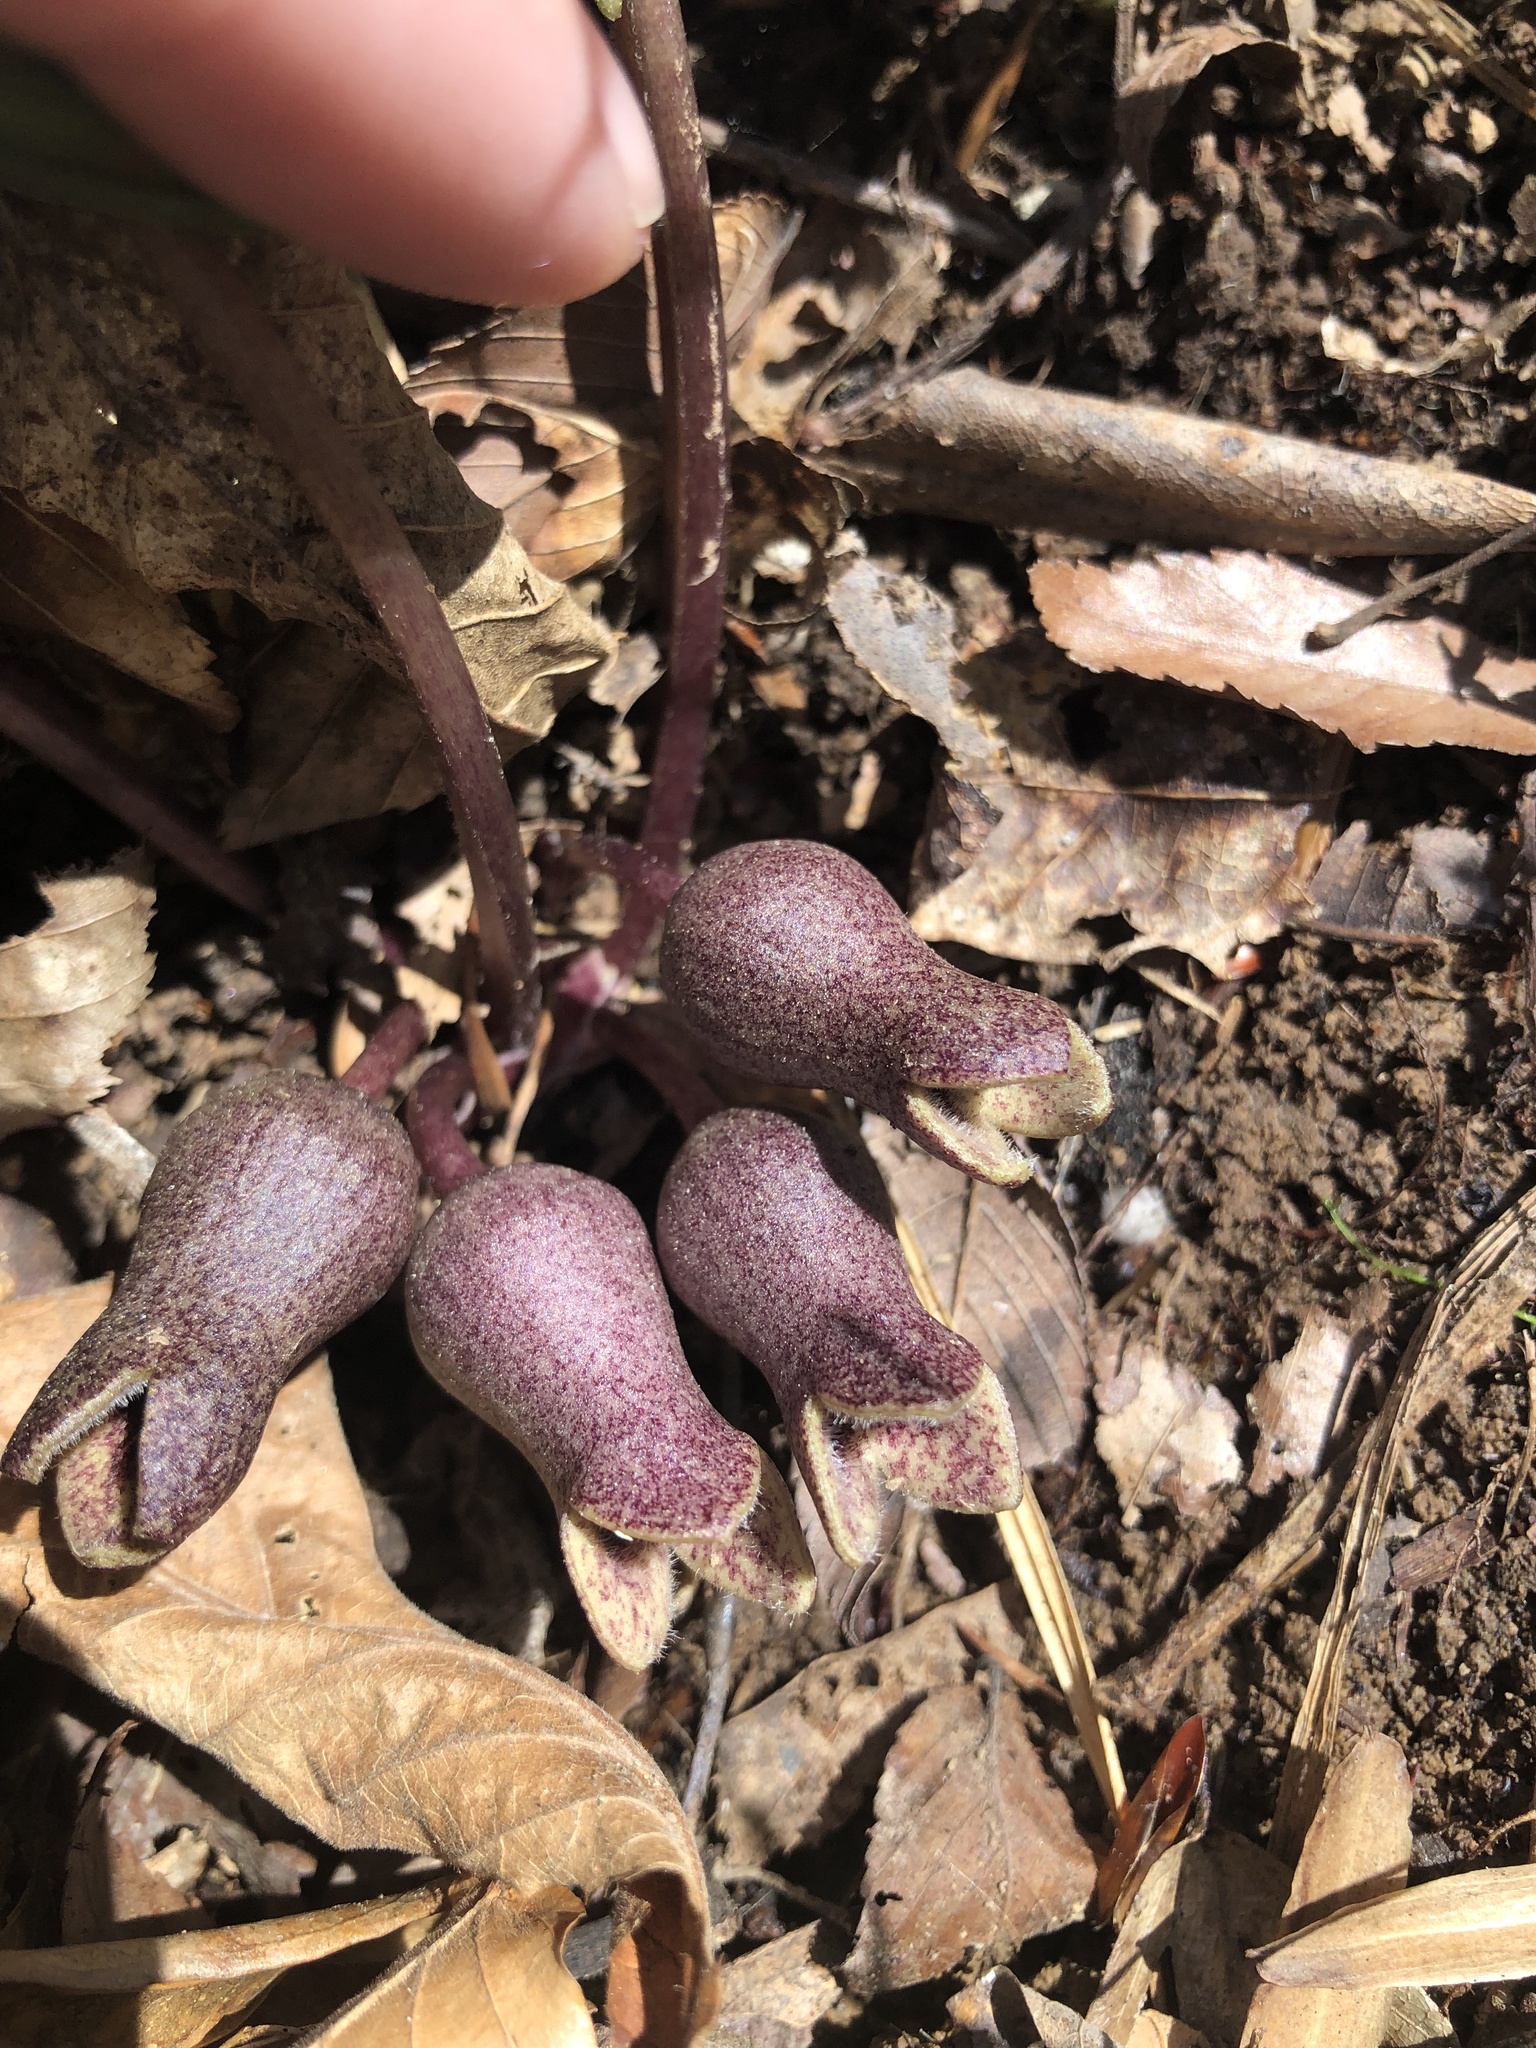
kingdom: Plantae
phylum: Tracheophyta
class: Magnoliopsida
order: Piperales
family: Aristolochiaceae
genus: Hexastylis
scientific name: Hexastylis arifolia
